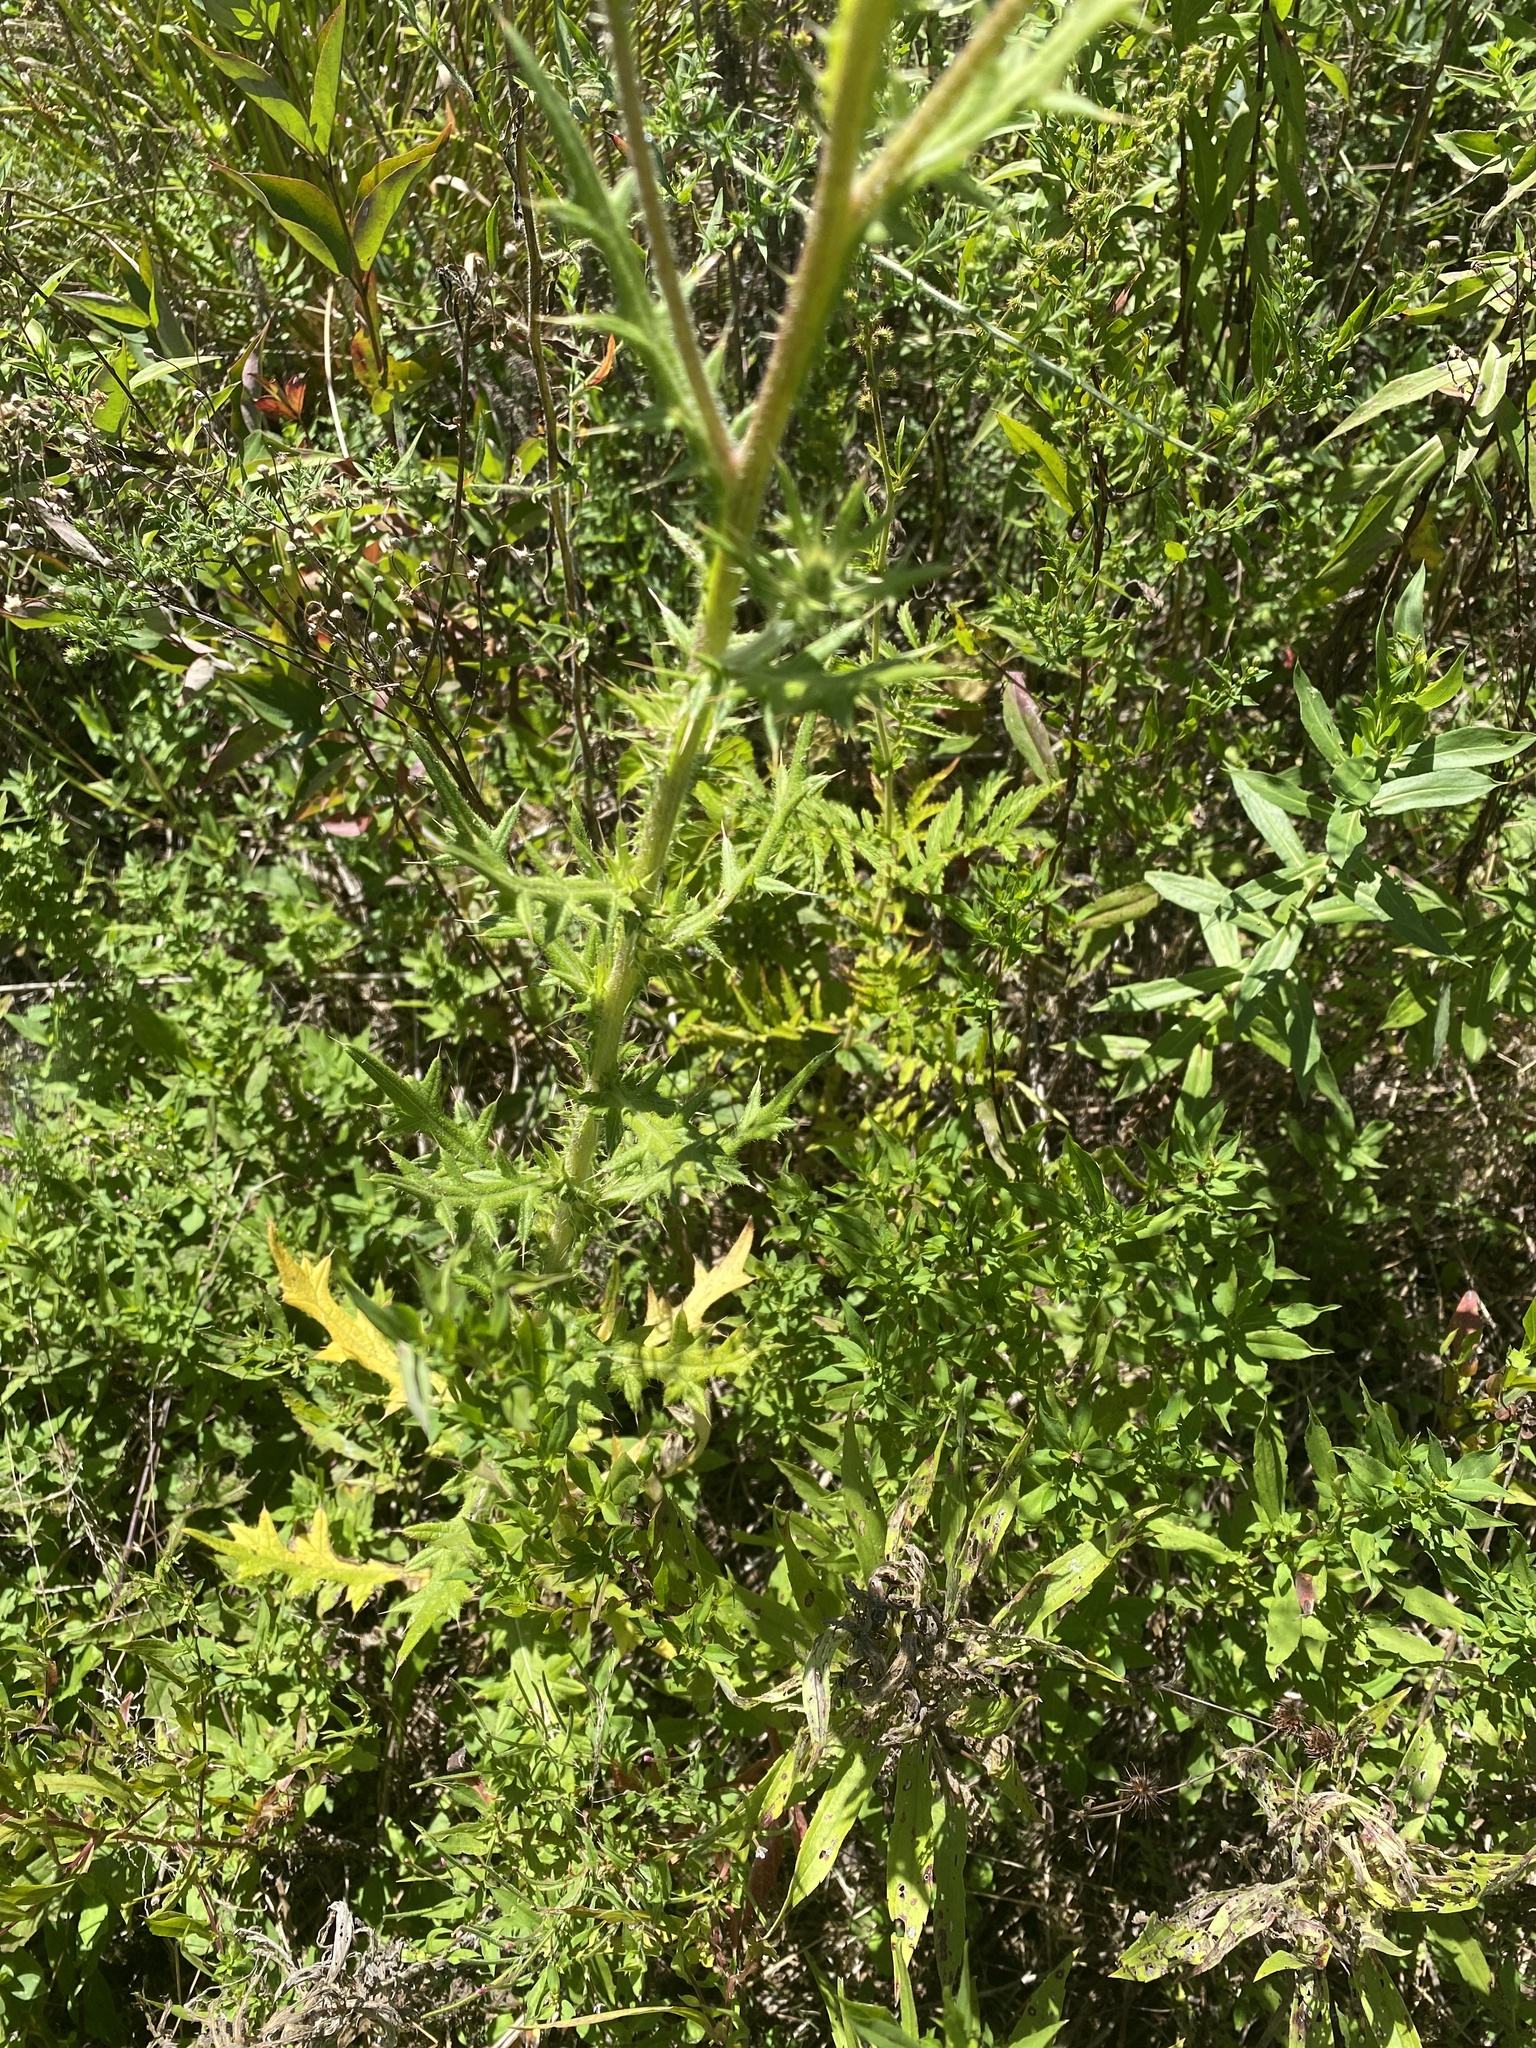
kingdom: Plantae
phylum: Tracheophyta
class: Magnoliopsida
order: Asterales
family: Asteraceae
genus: Cirsium
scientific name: Cirsium vulgare
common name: Bull thistle
